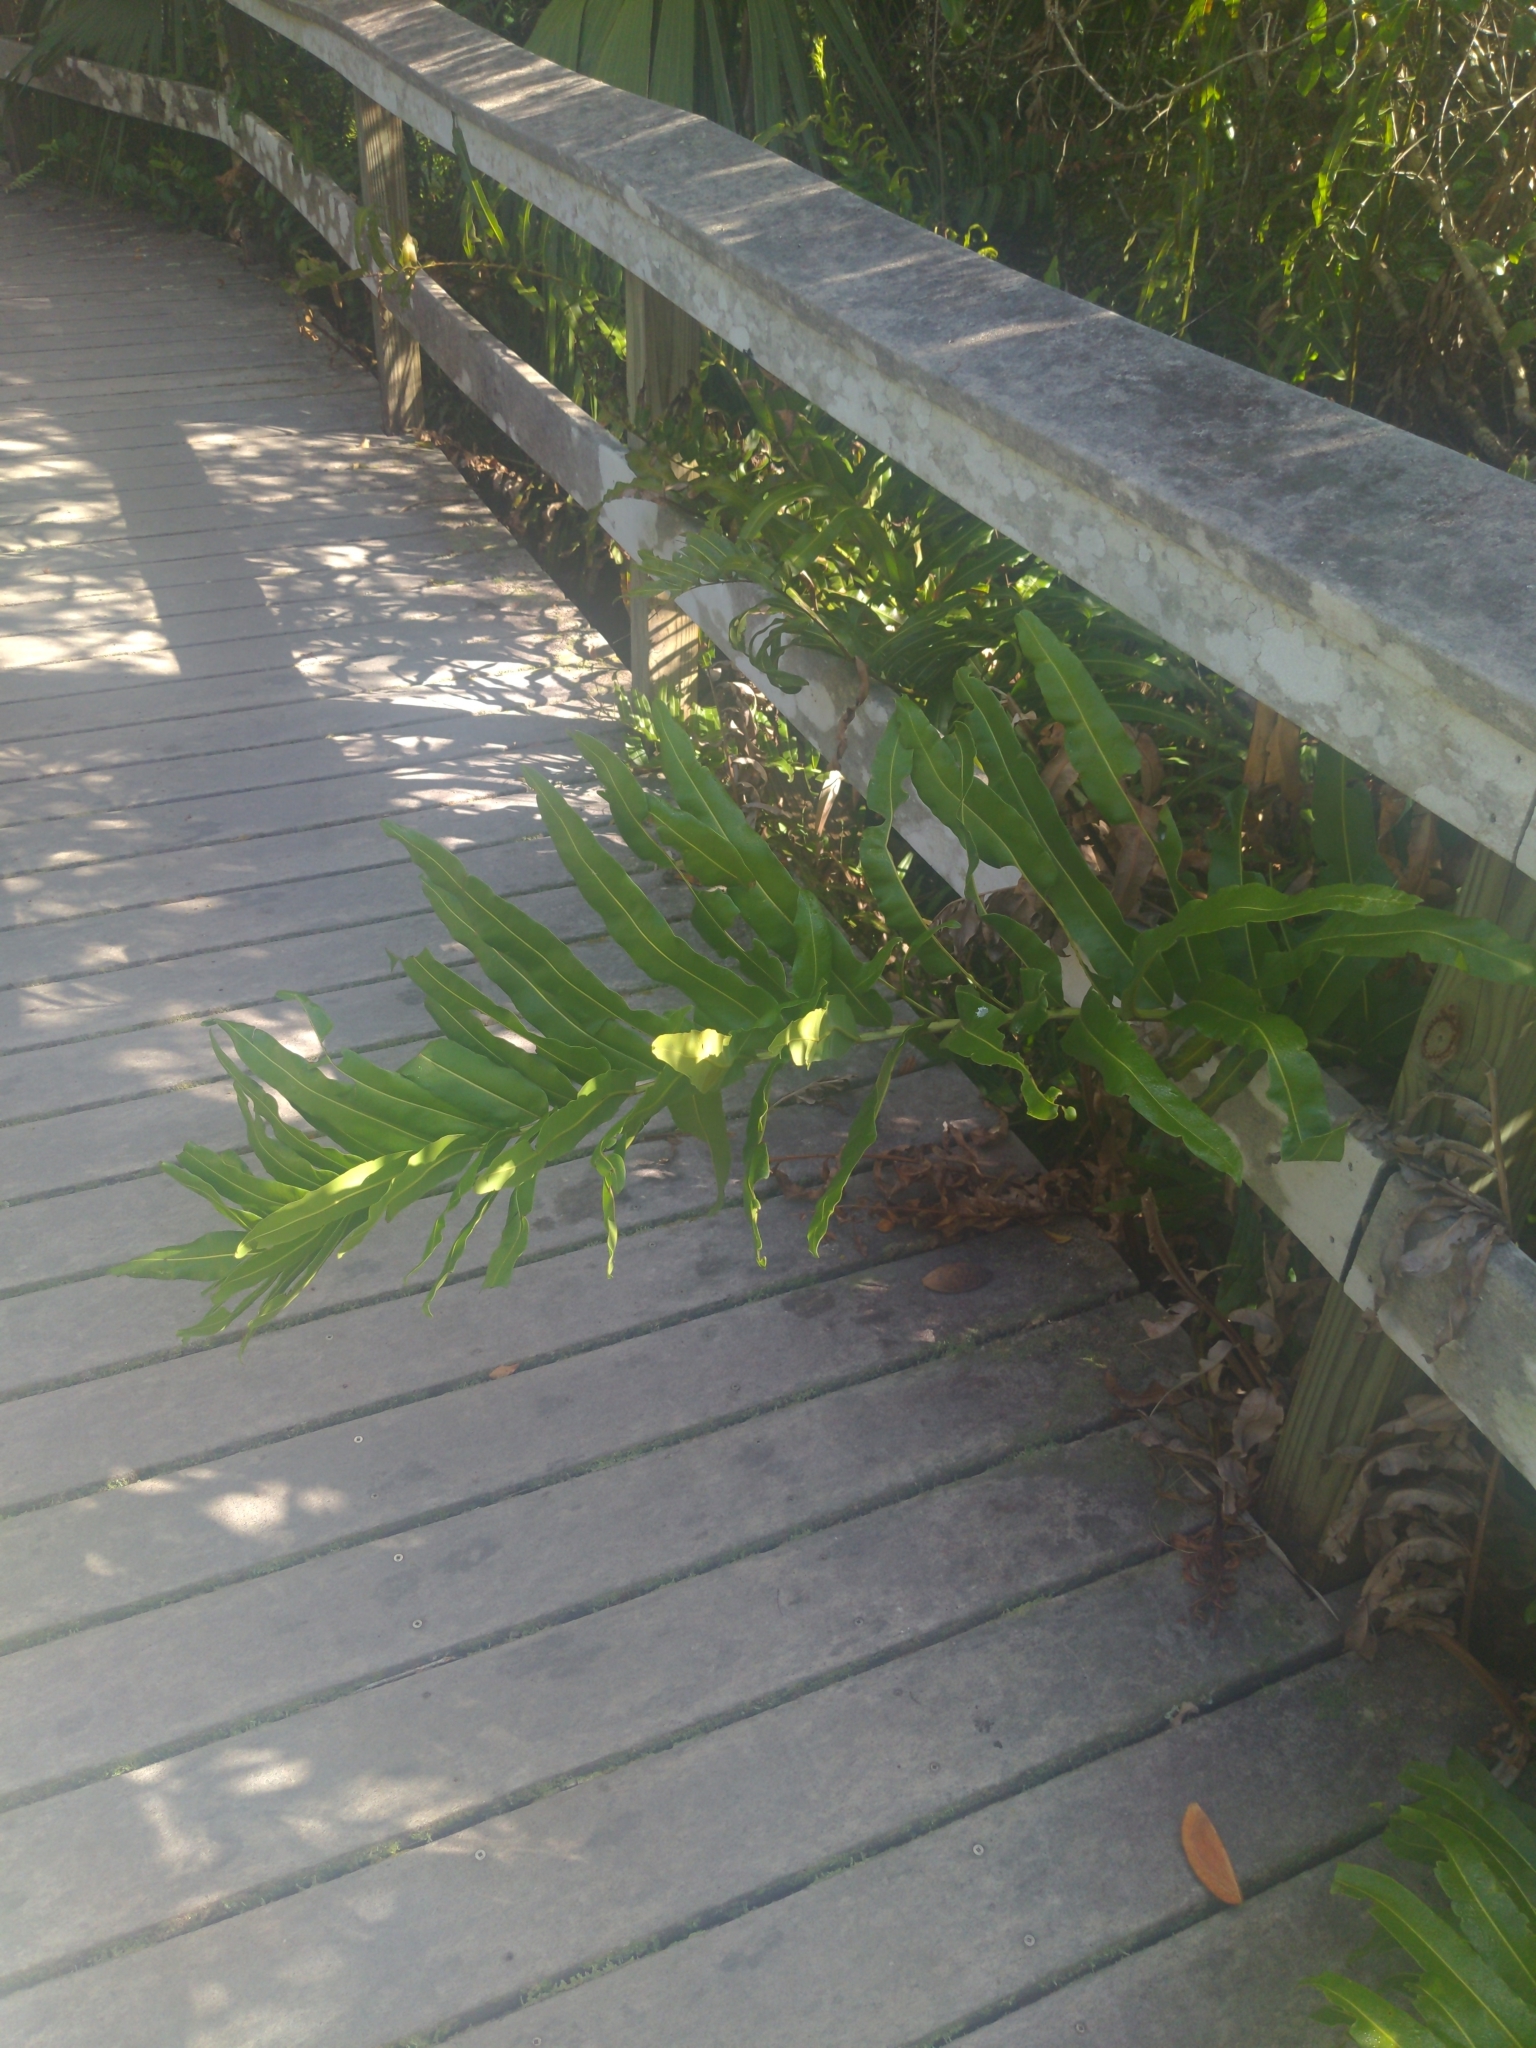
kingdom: Plantae
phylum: Tracheophyta
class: Polypodiopsida
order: Polypodiales
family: Pteridaceae
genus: Acrostichum
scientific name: Acrostichum danaeifolium
